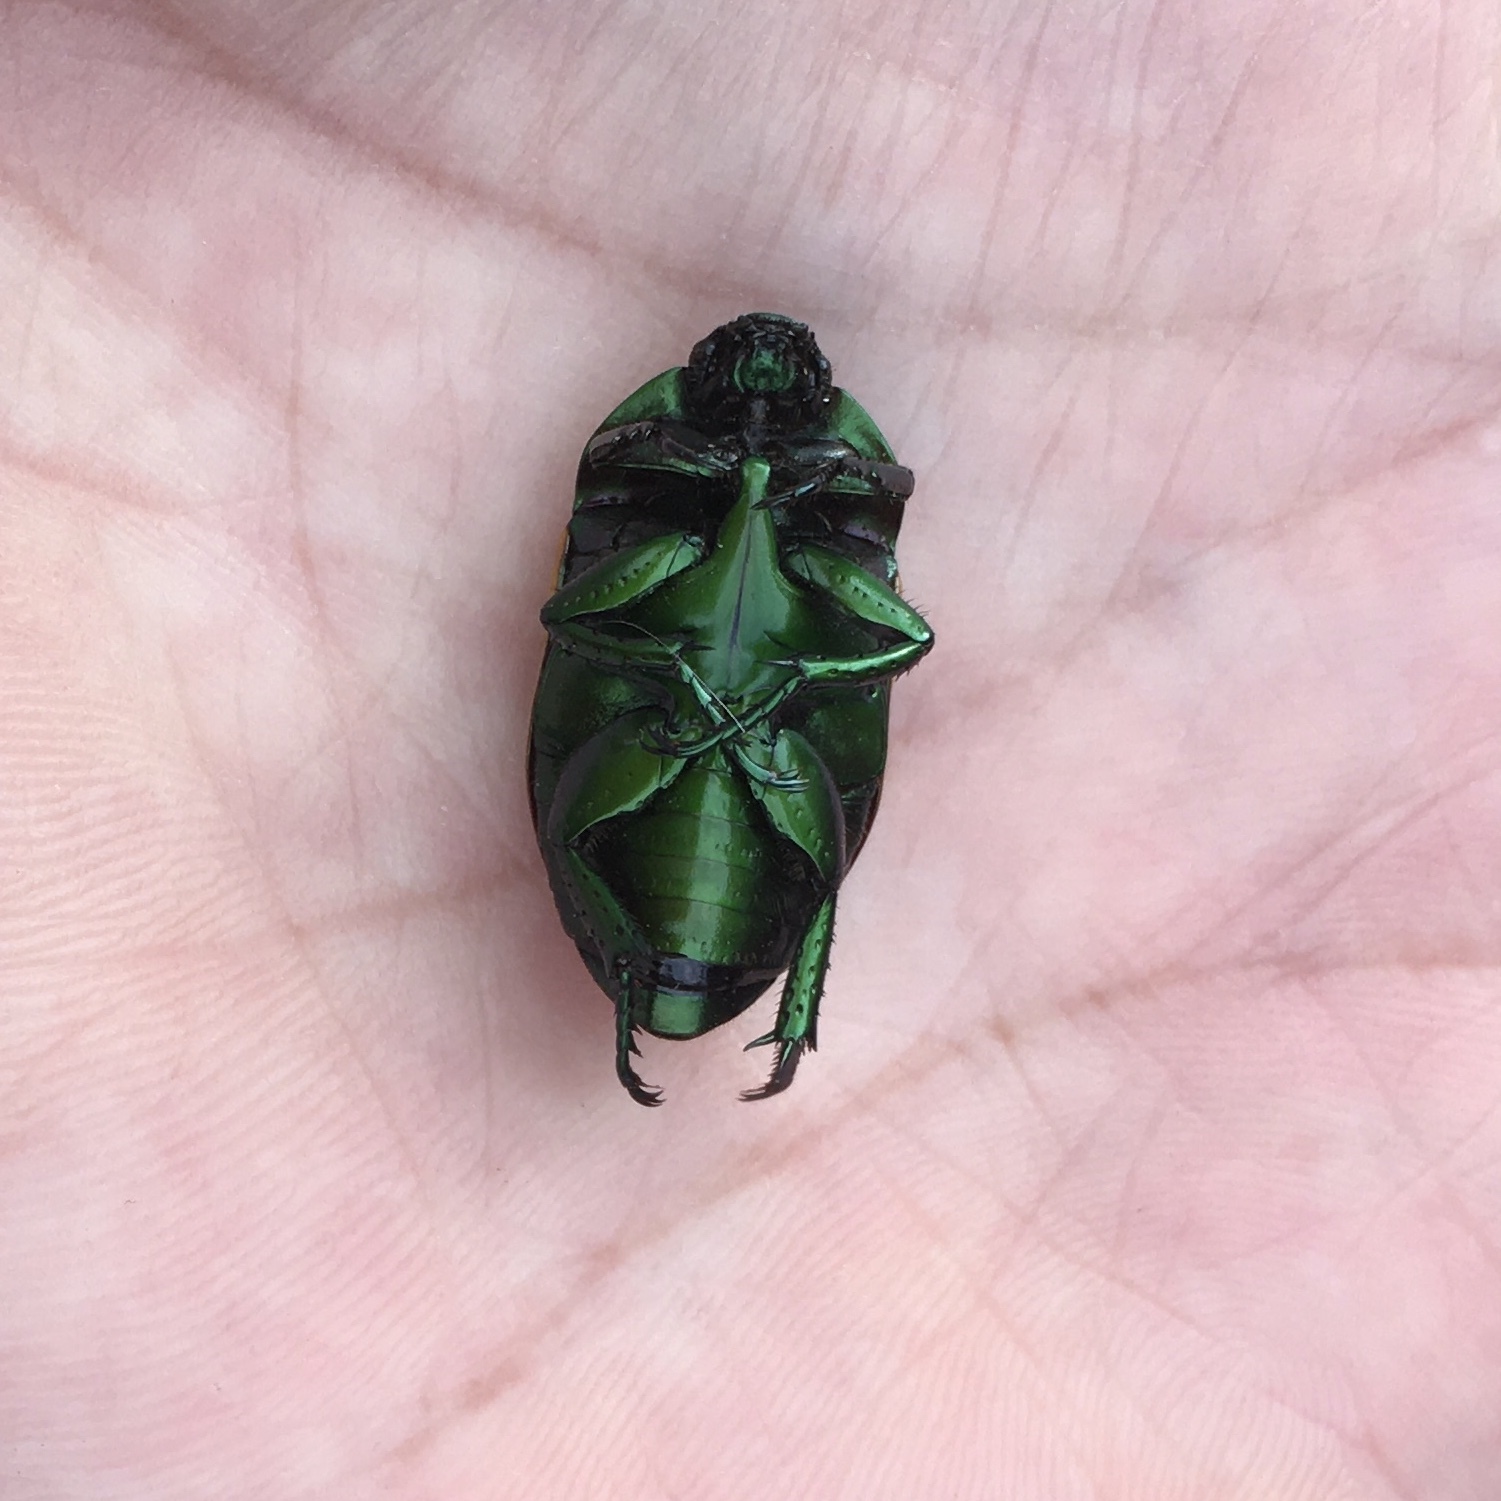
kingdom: Animalia
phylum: Arthropoda
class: Insecta
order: Coleoptera
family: Scarabaeidae
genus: Macraspis
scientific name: Macraspis festiva
